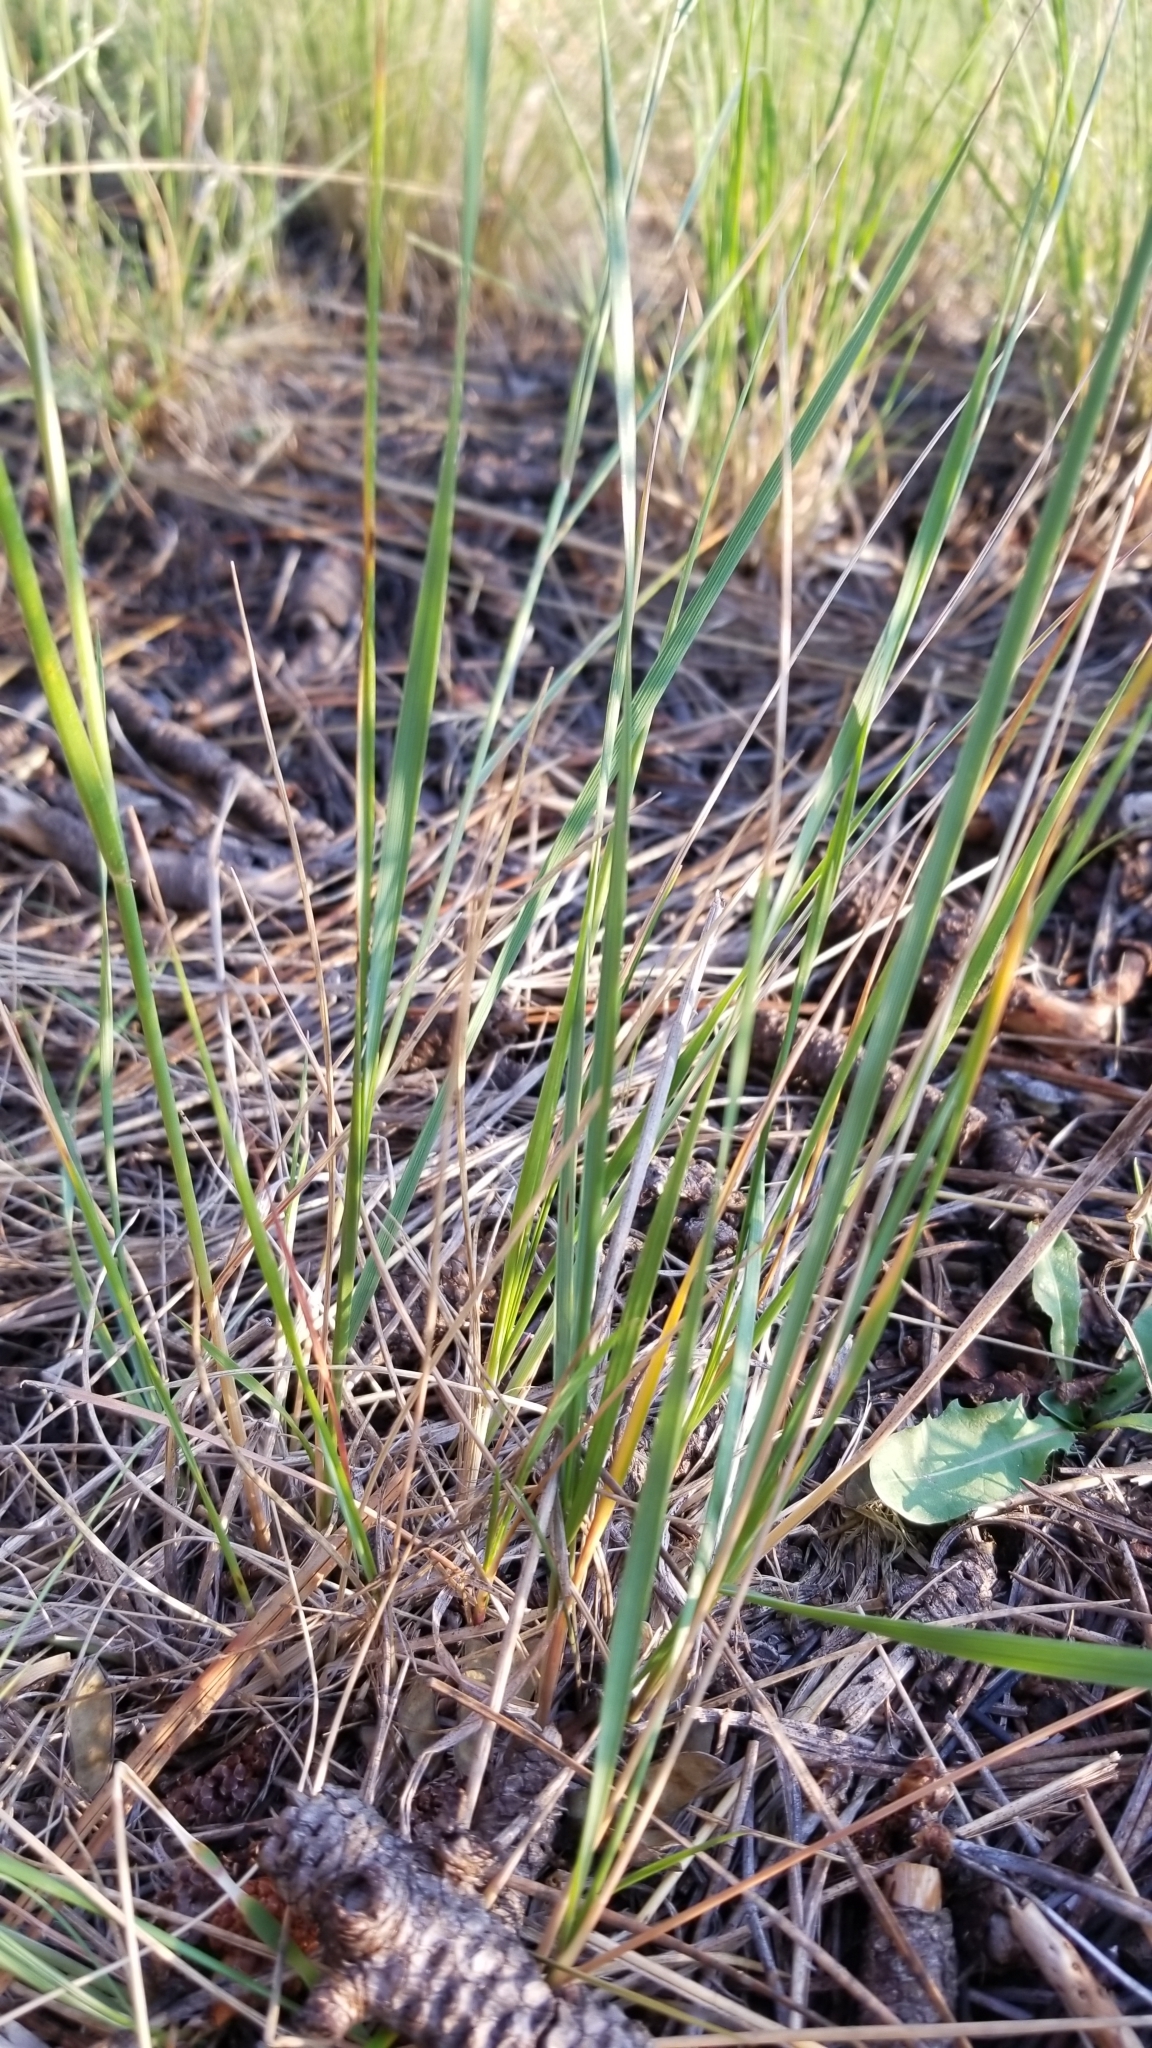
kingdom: Plantae
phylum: Tracheophyta
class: Liliopsida
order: Poales
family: Poaceae
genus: Elymus
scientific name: Elymus elymoides
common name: Bottlebrush squirreltail
